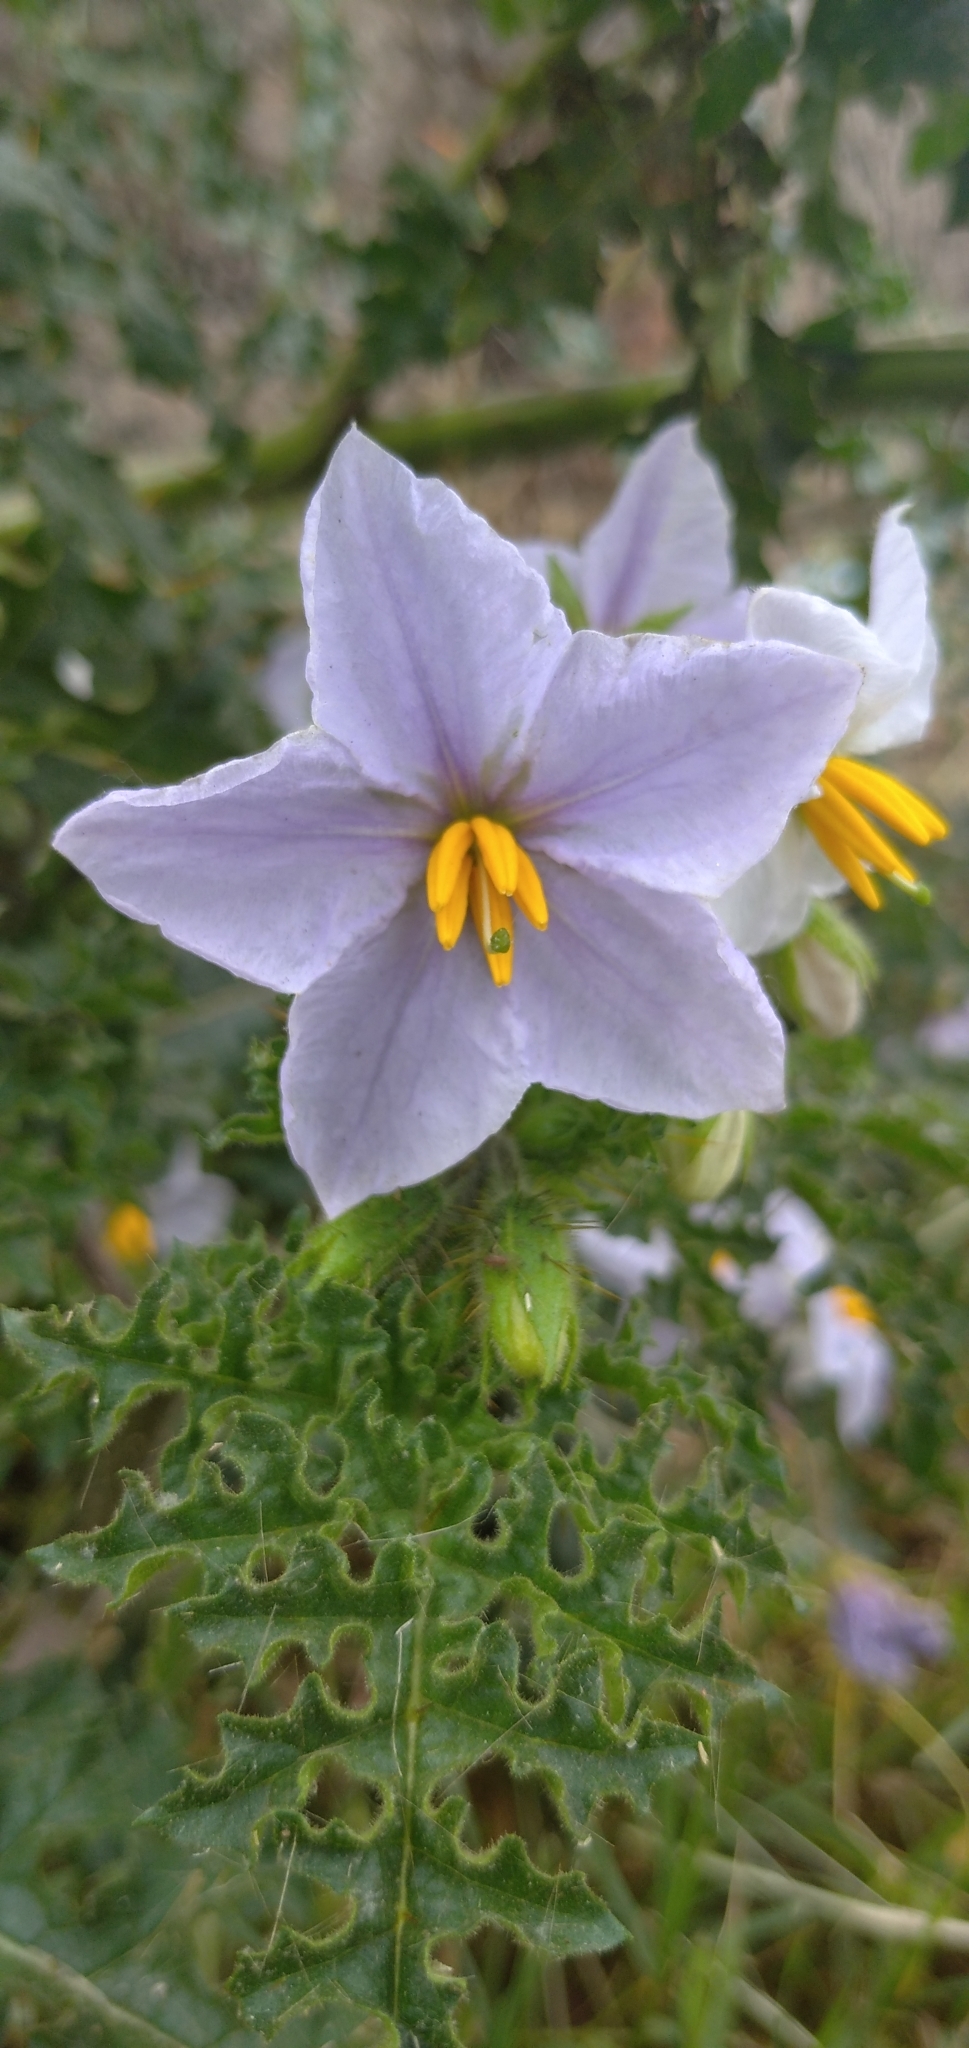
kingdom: Plantae
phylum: Tracheophyta
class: Magnoliopsida
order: Solanales
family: Solanaceae
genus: Solanum
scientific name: Solanum sisymbriifolium
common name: Red buffalo-bur
